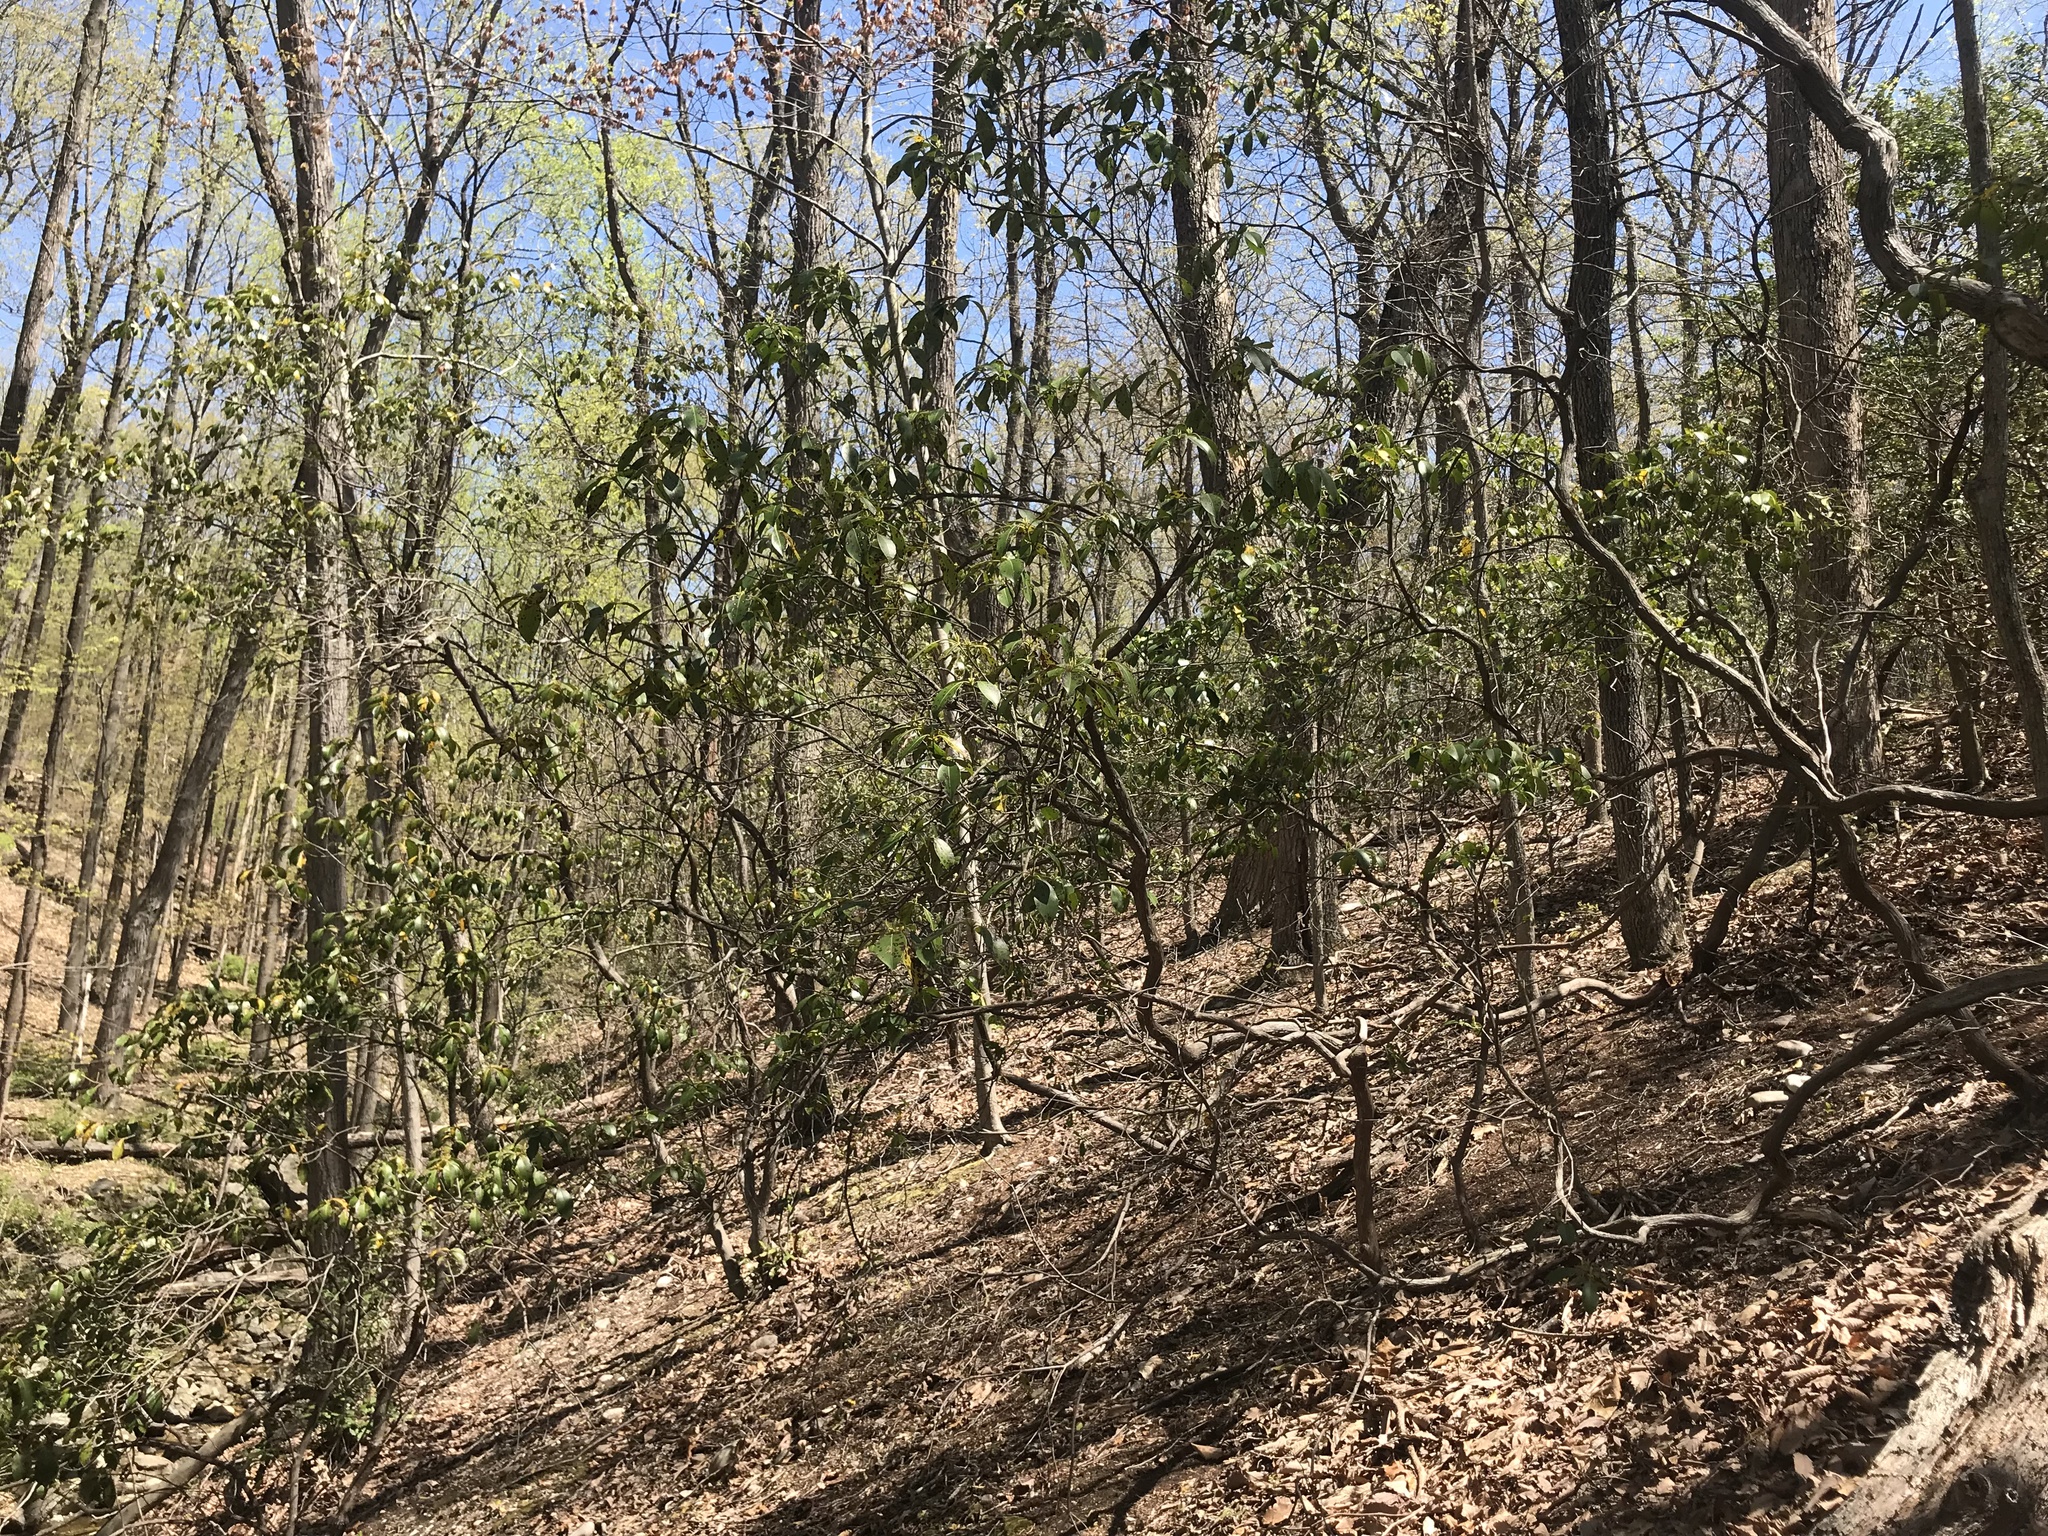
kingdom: Plantae
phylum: Tracheophyta
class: Magnoliopsida
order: Ericales
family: Ericaceae
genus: Kalmia
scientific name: Kalmia latifolia
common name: Mountain-laurel
